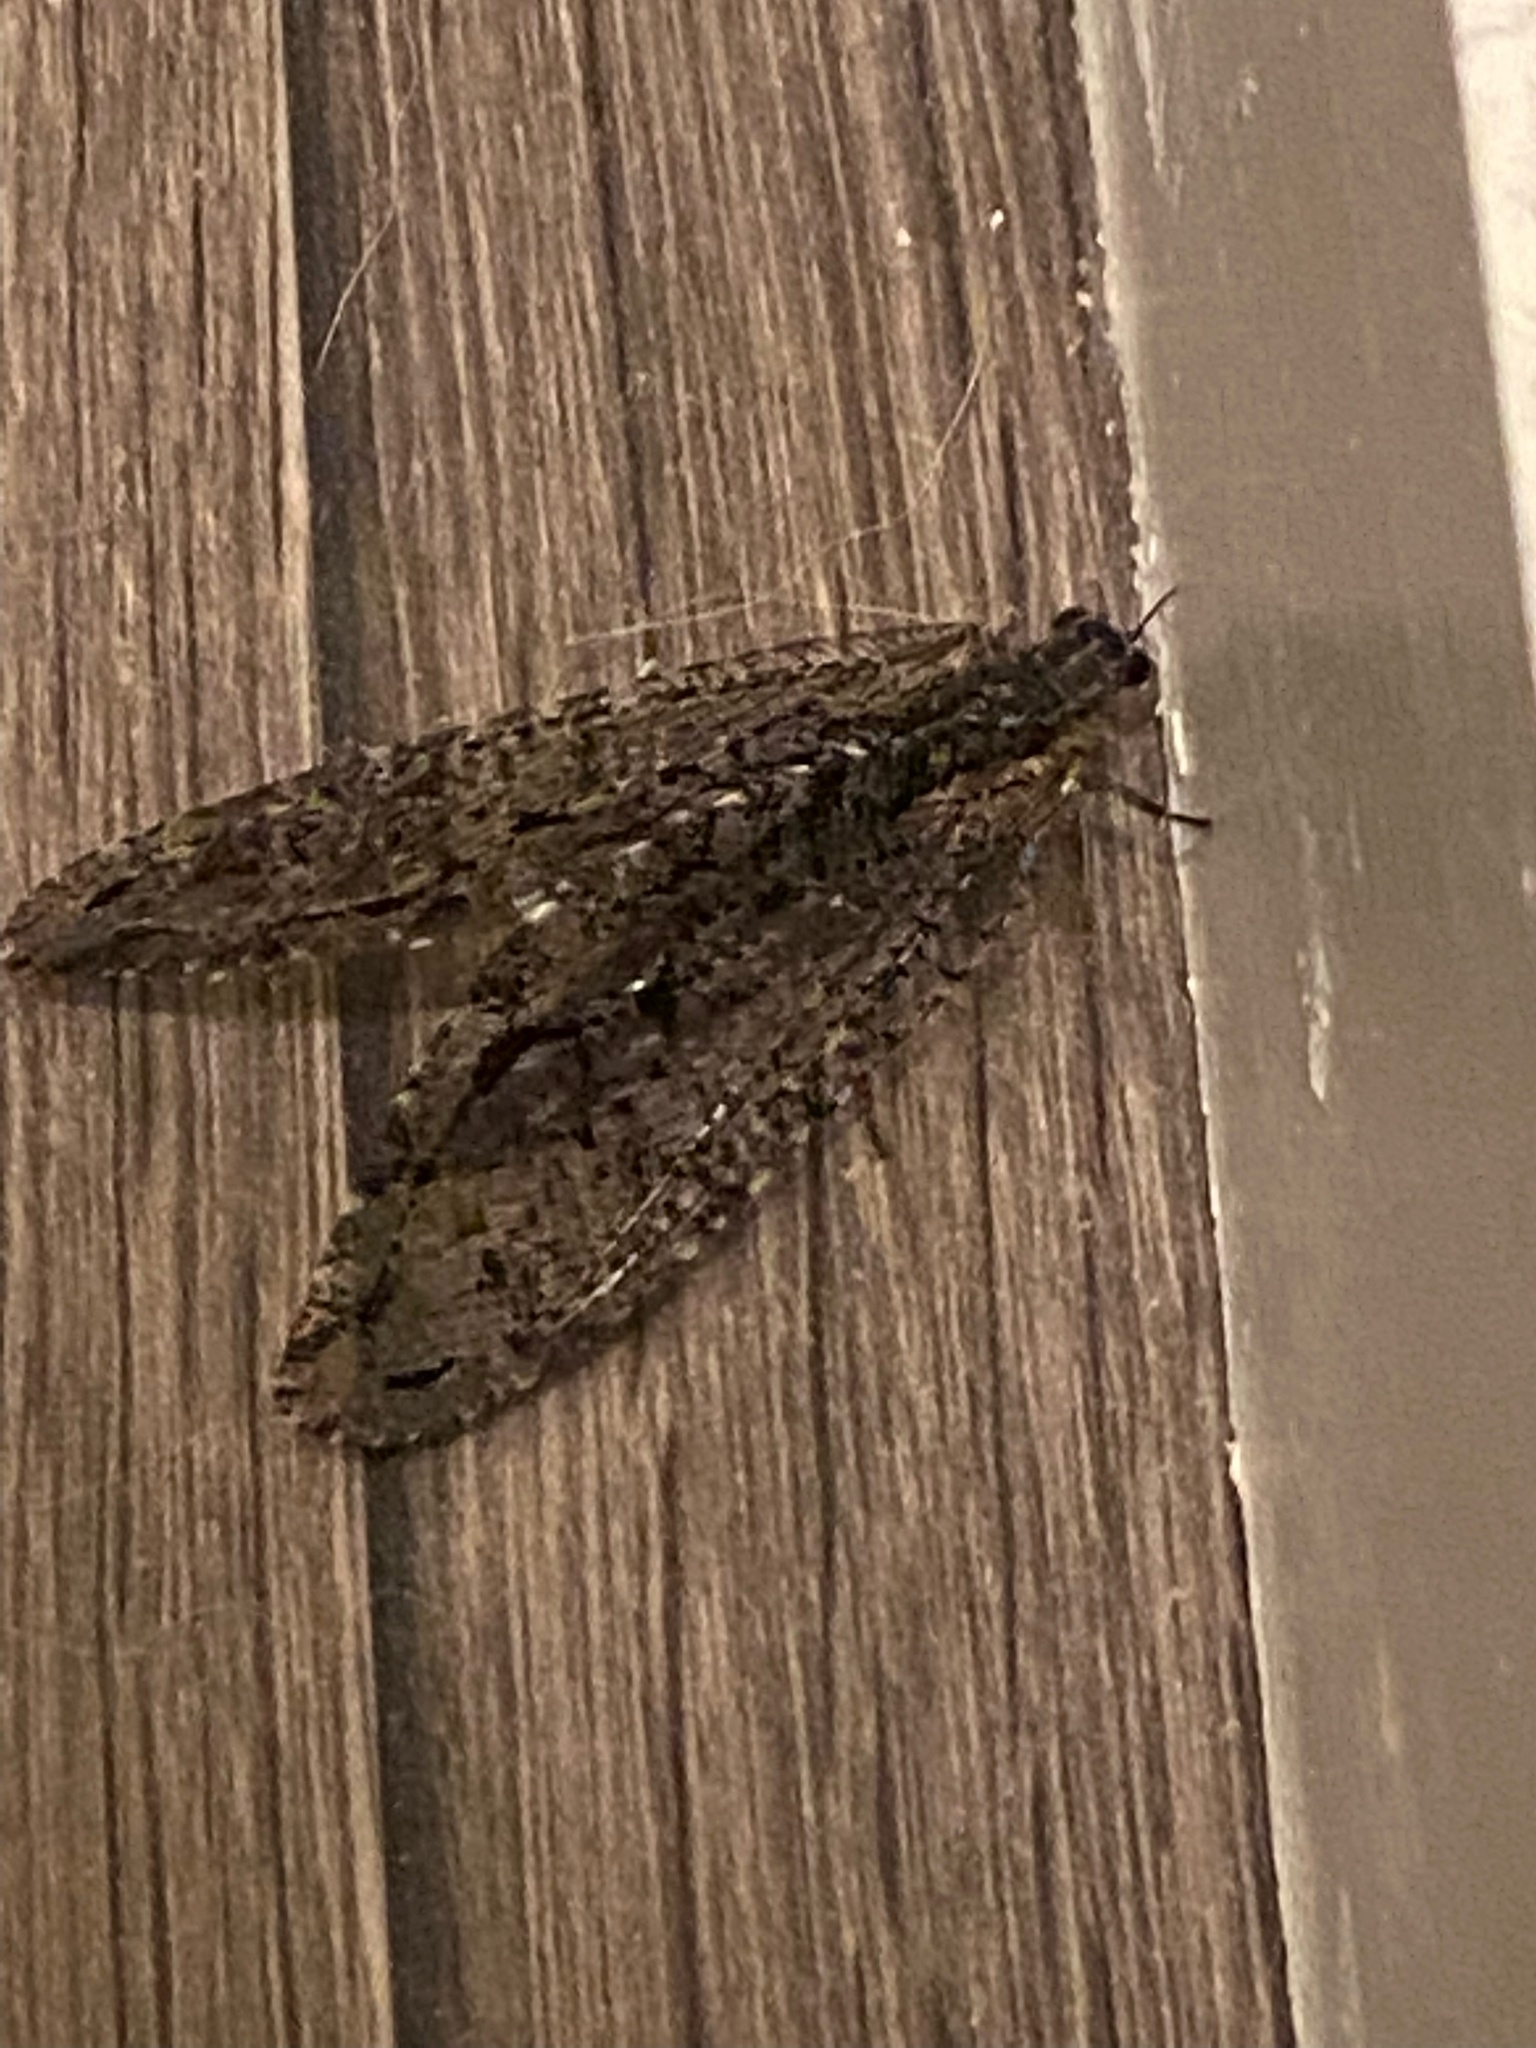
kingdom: Animalia
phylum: Arthropoda
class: Insecta
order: Neuroptera
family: Ithonidae
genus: Polystoechotes
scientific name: Polystoechotes punctata
